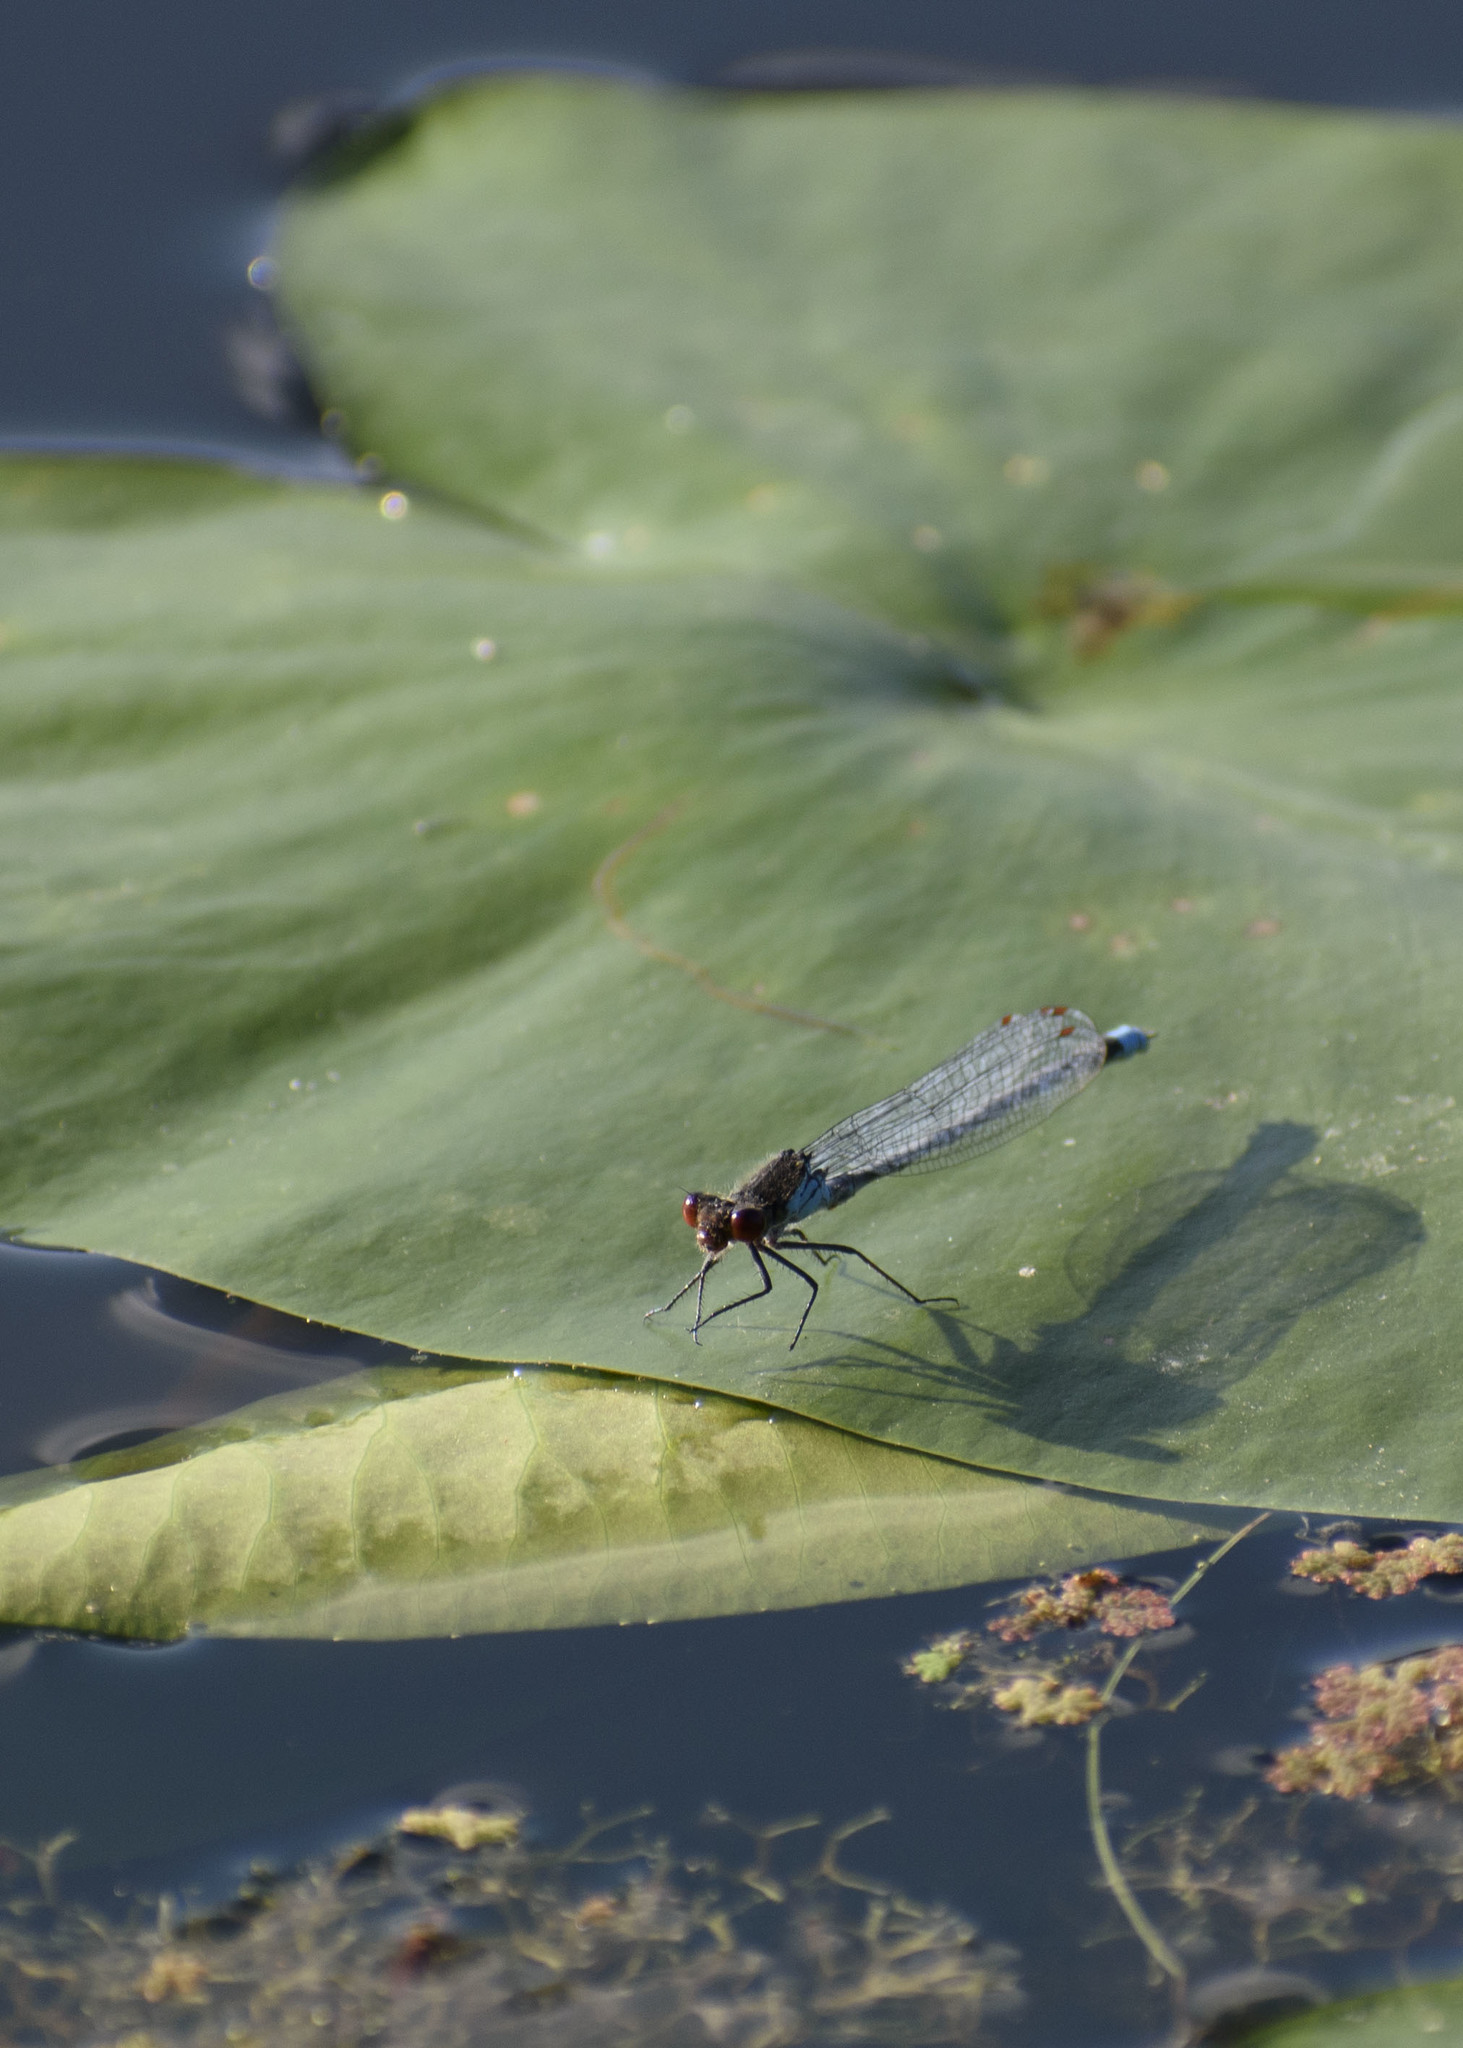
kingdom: Animalia
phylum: Arthropoda
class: Insecta
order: Odonata
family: Coenagrionidae
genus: Erythromma
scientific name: Erythromma najas
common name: Red-eyed damselfly
